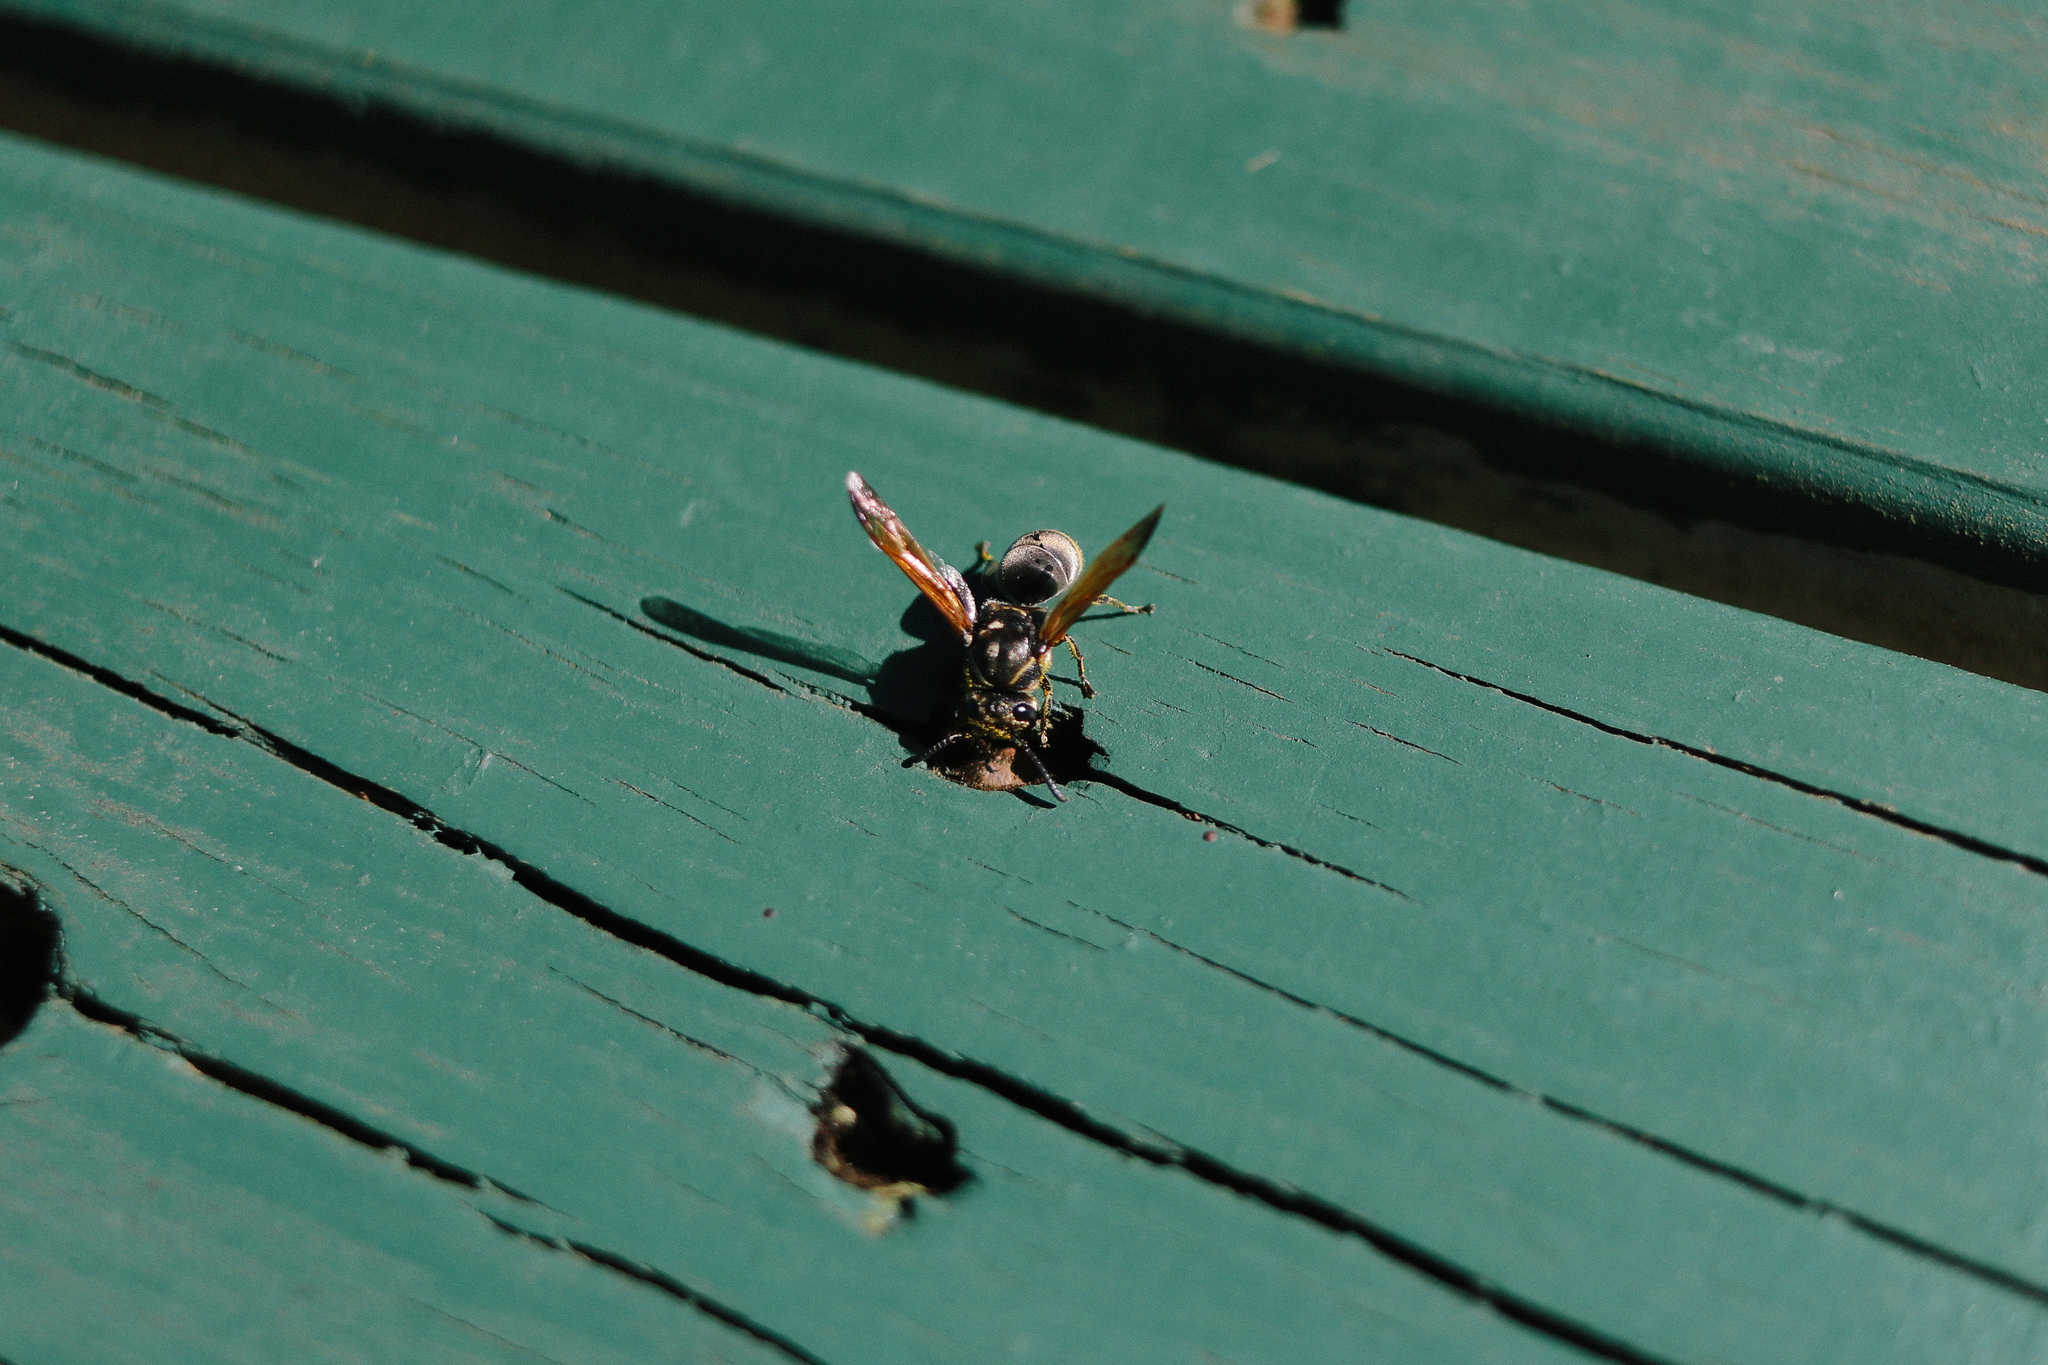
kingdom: Animalia
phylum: Arthropoda
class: Insecta
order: Hymenoptera
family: Eumenidae
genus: Pachodynerus
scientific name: Pachodynerus nasidens
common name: Key hole wasp
